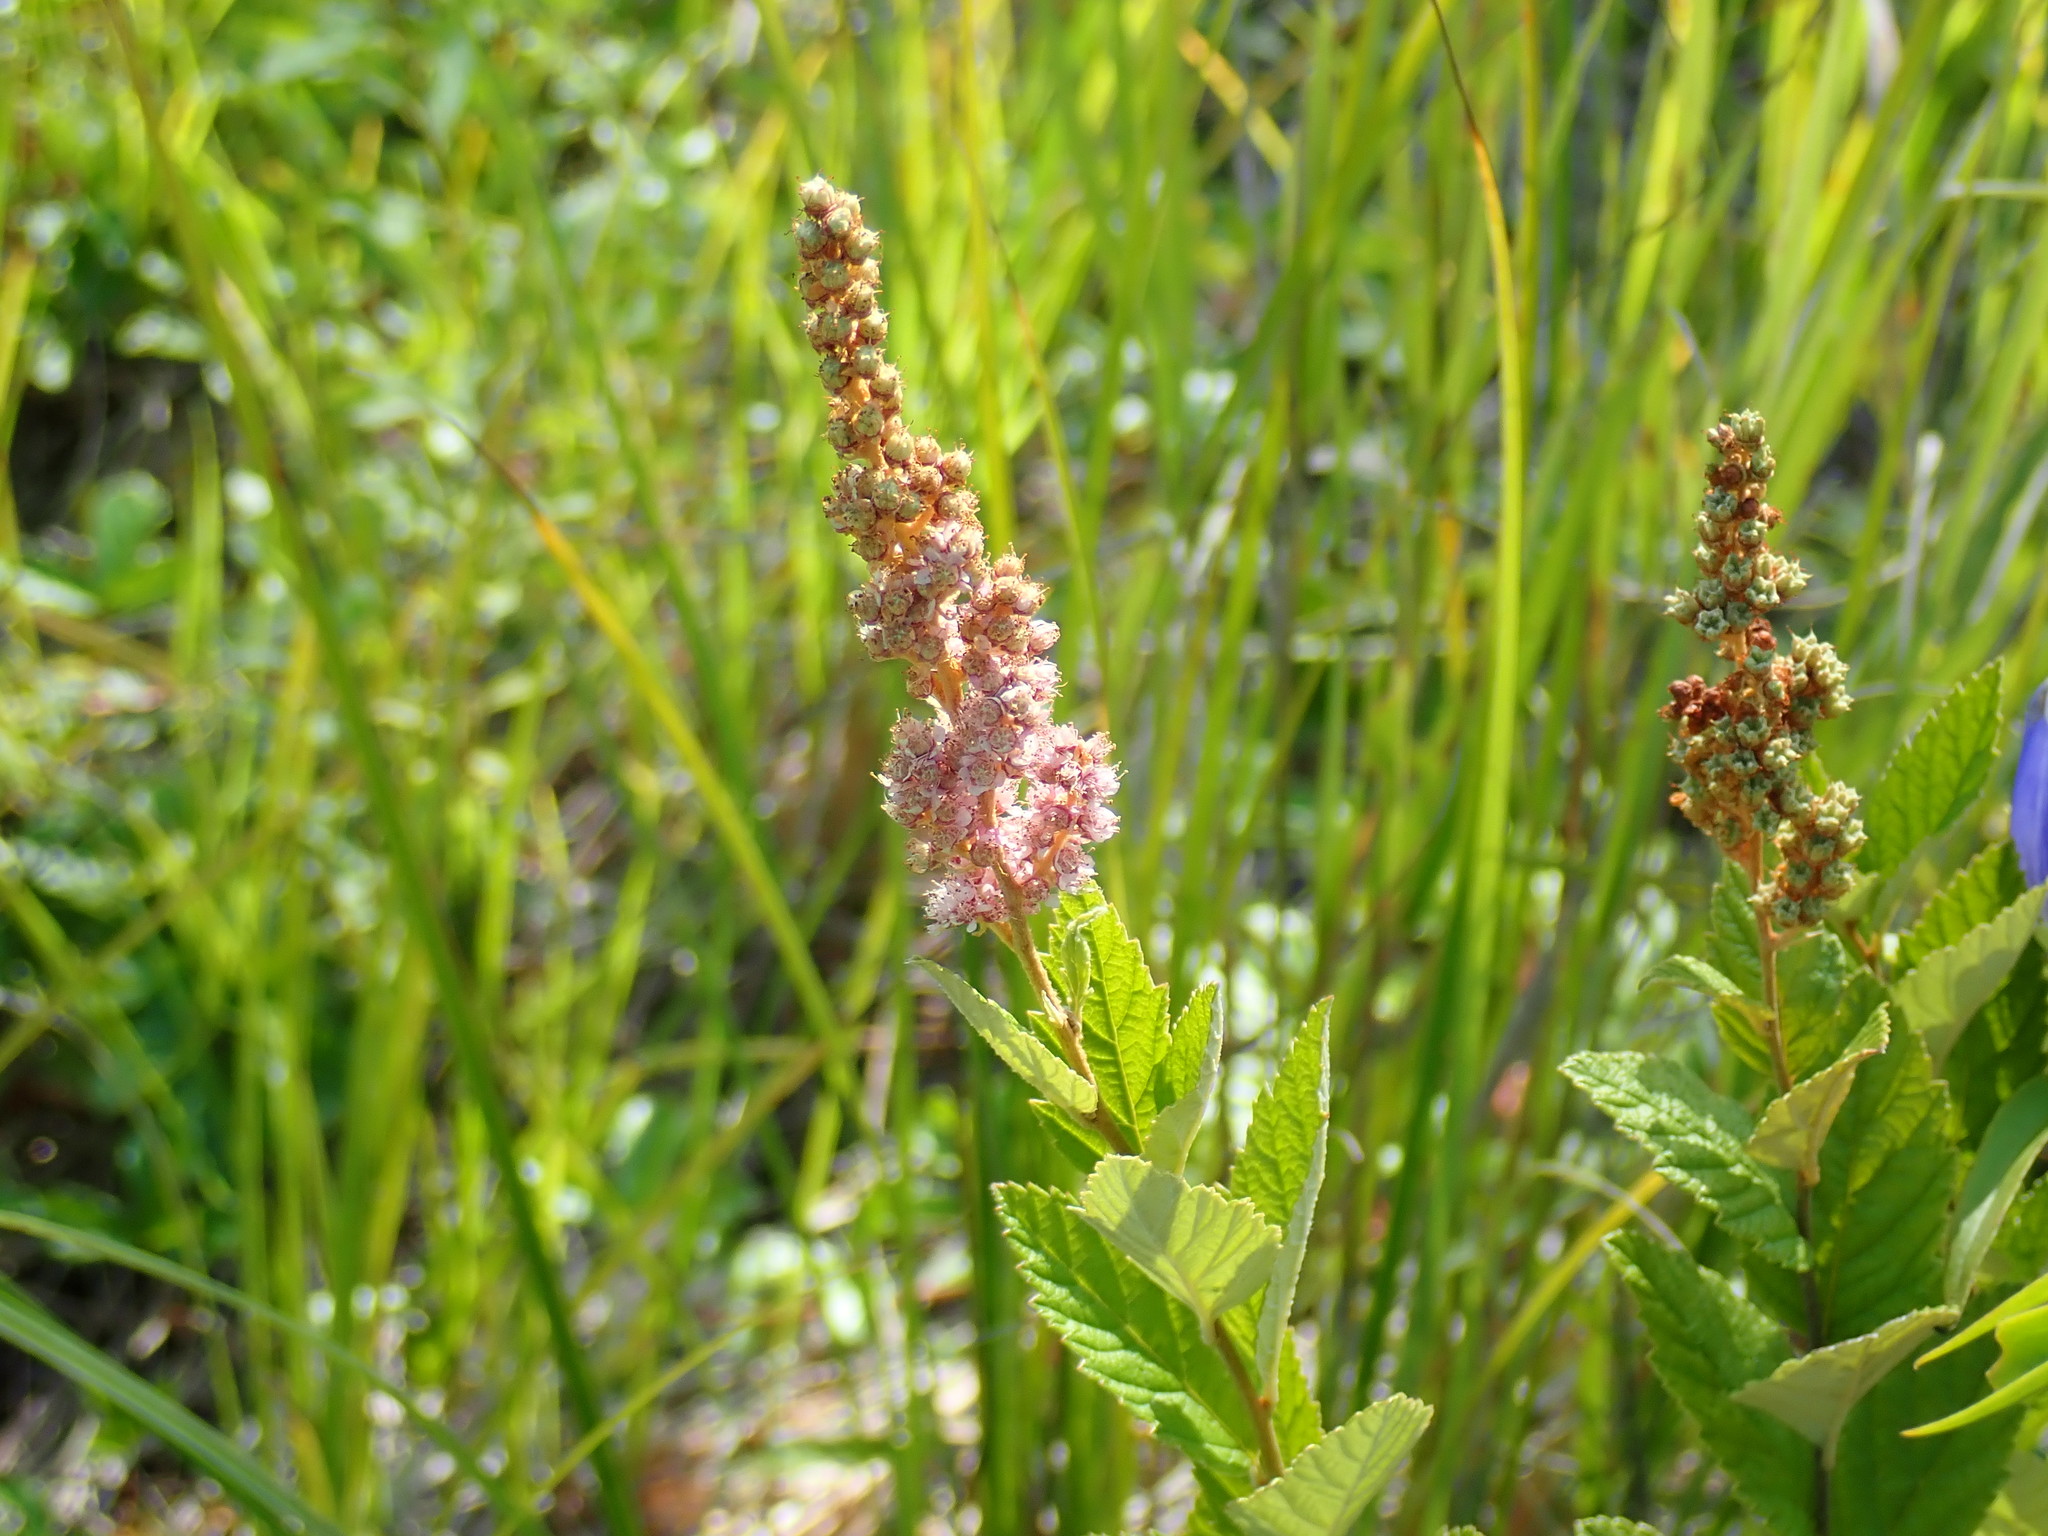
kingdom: Plantae
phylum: Tracheophyta
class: Magnoliopsida
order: Rosales
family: Rosaceae
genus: Spiraea
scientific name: Spiraea tomentosa
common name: Hardhack
